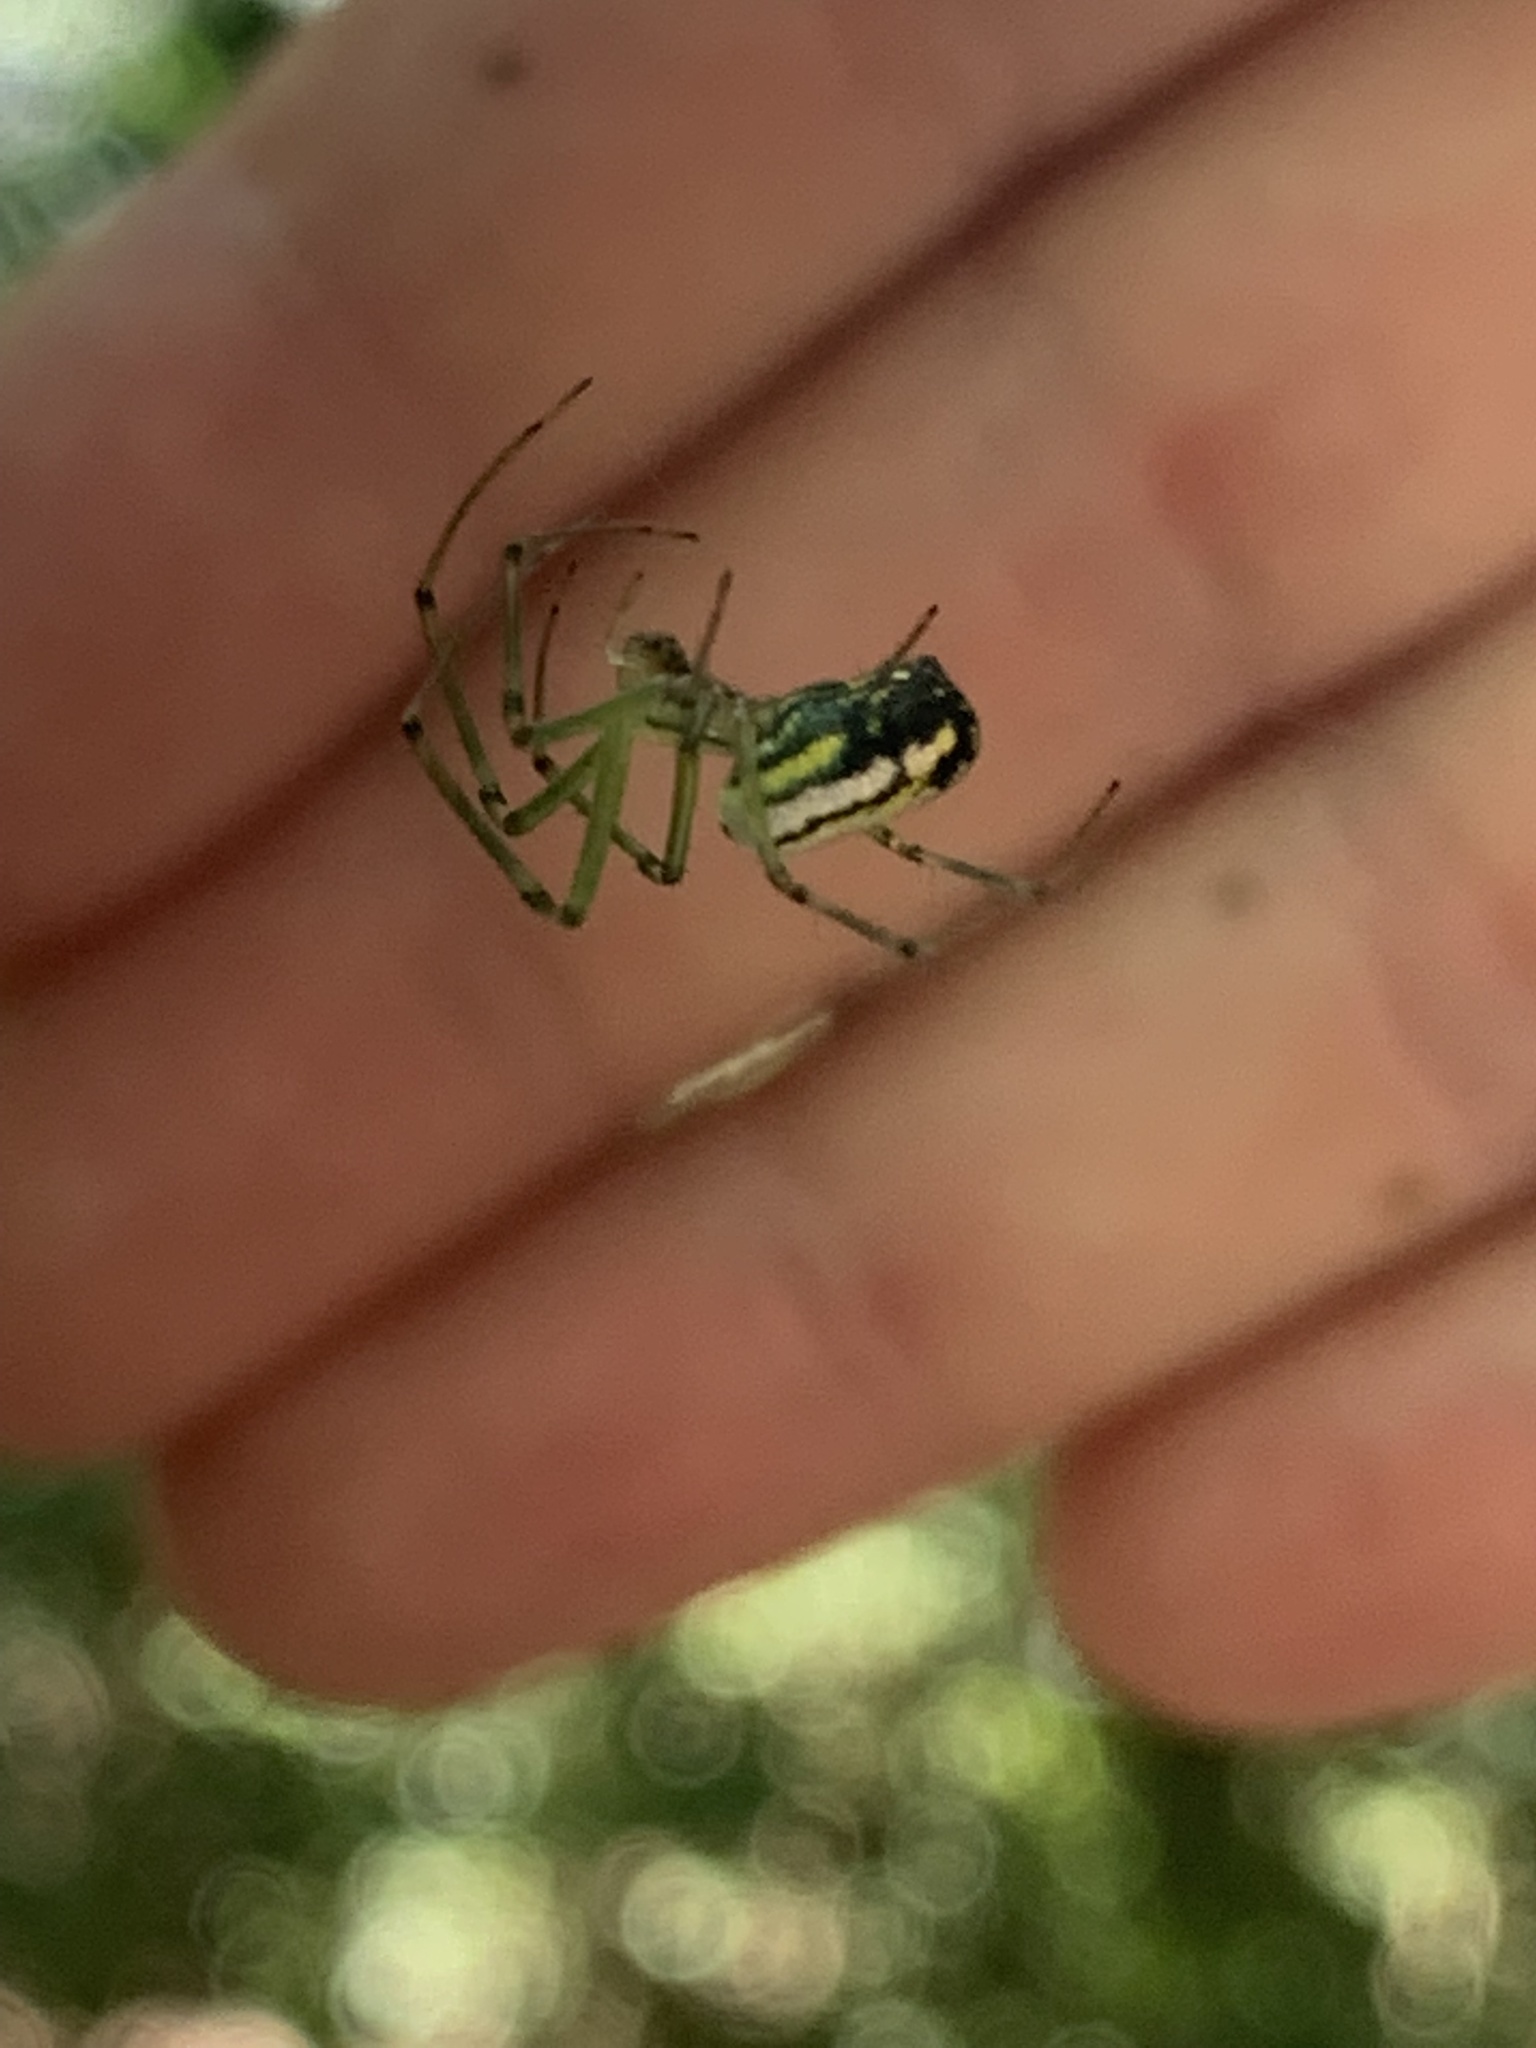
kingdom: Animalia
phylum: Arthropoda
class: Arachnida
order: Araneae
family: Tetragnathidae
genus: Leucauge
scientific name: Leucauge venusta
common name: Longjawed orb weavers
